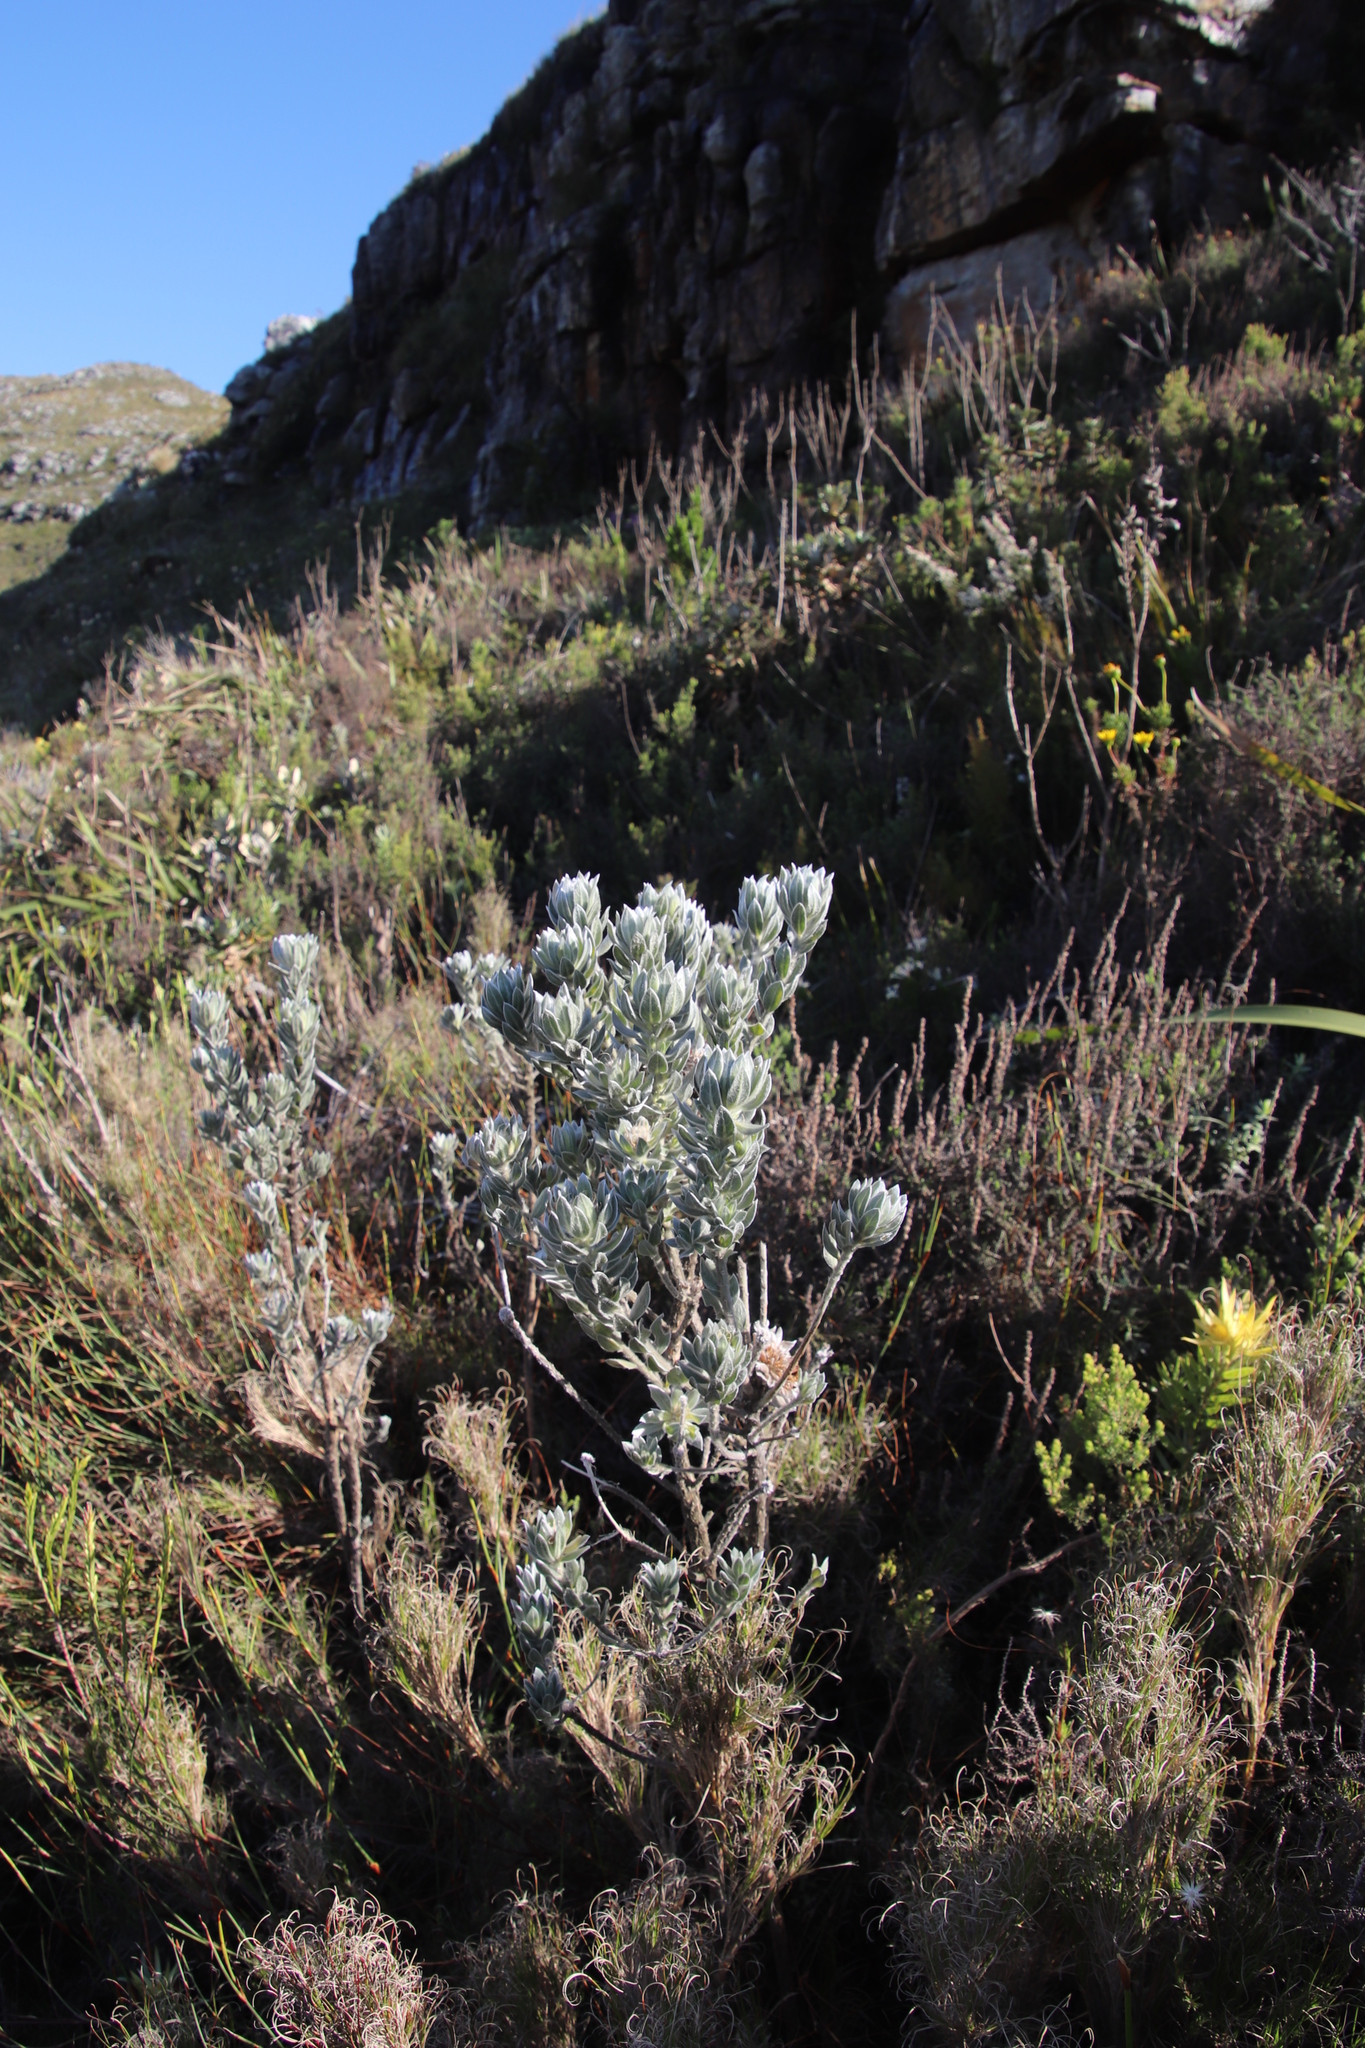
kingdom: Plantae
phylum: Tracheophyta
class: Magnoliopsida
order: Fabales
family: Fabaceae
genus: Xiphotheca
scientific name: Xiphotheca fruticosa
